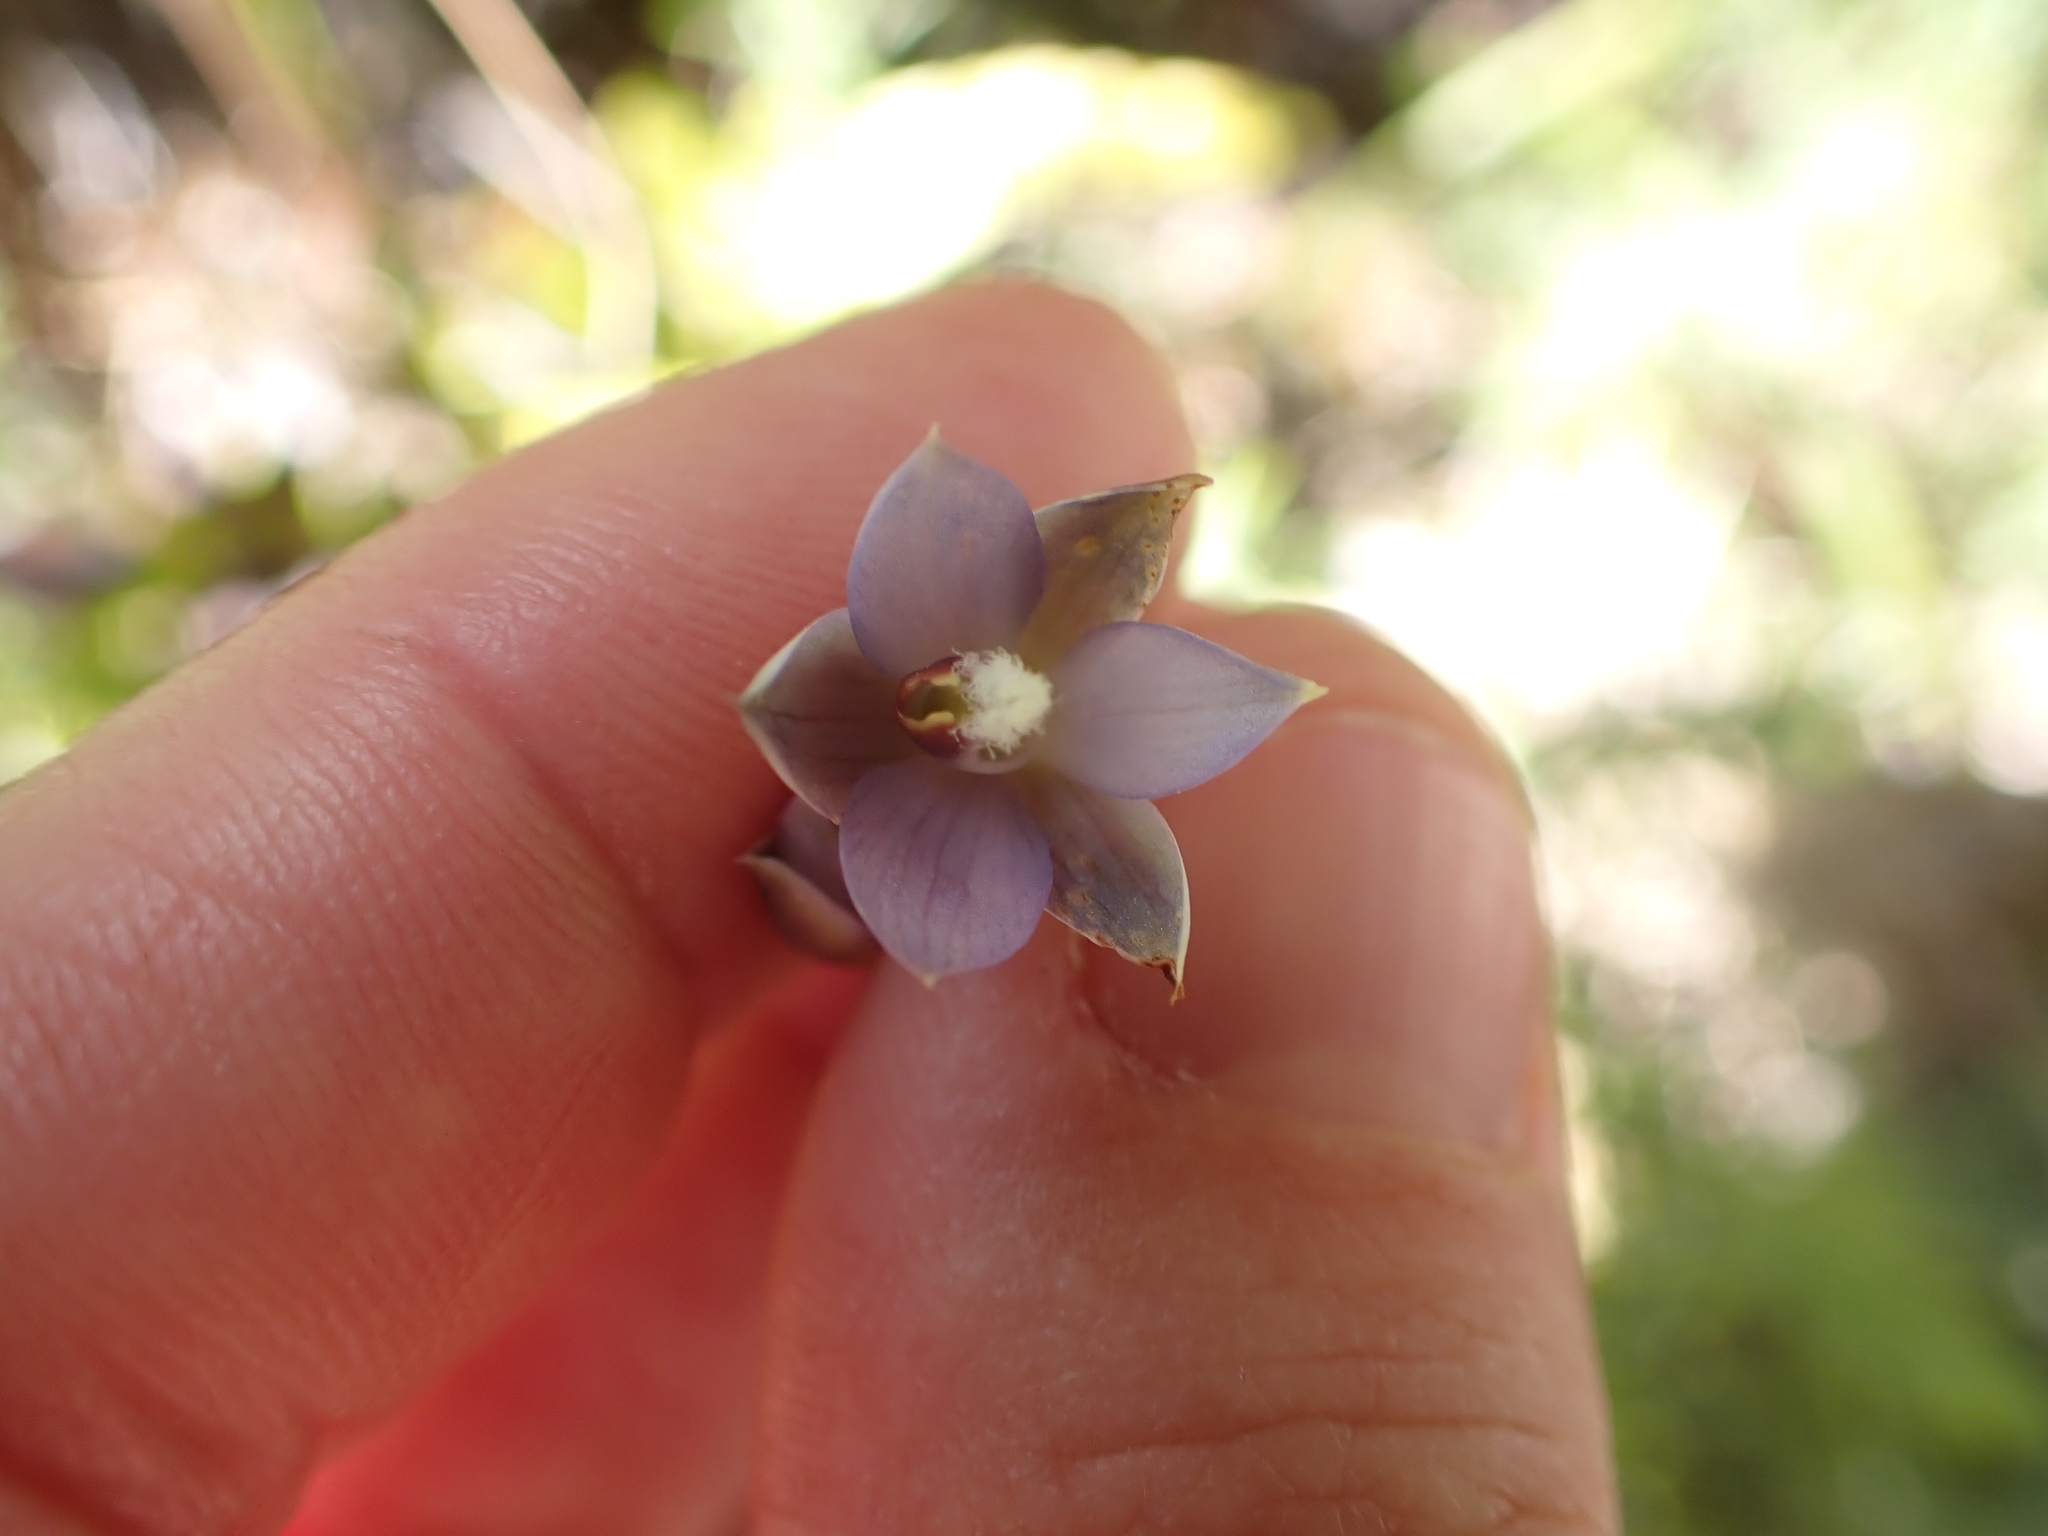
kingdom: Plantae
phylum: Tracheophyta
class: Liliopsida
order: Asparagales
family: Orchidaceae
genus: Thelymitra
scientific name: Thelymitra hatchii
